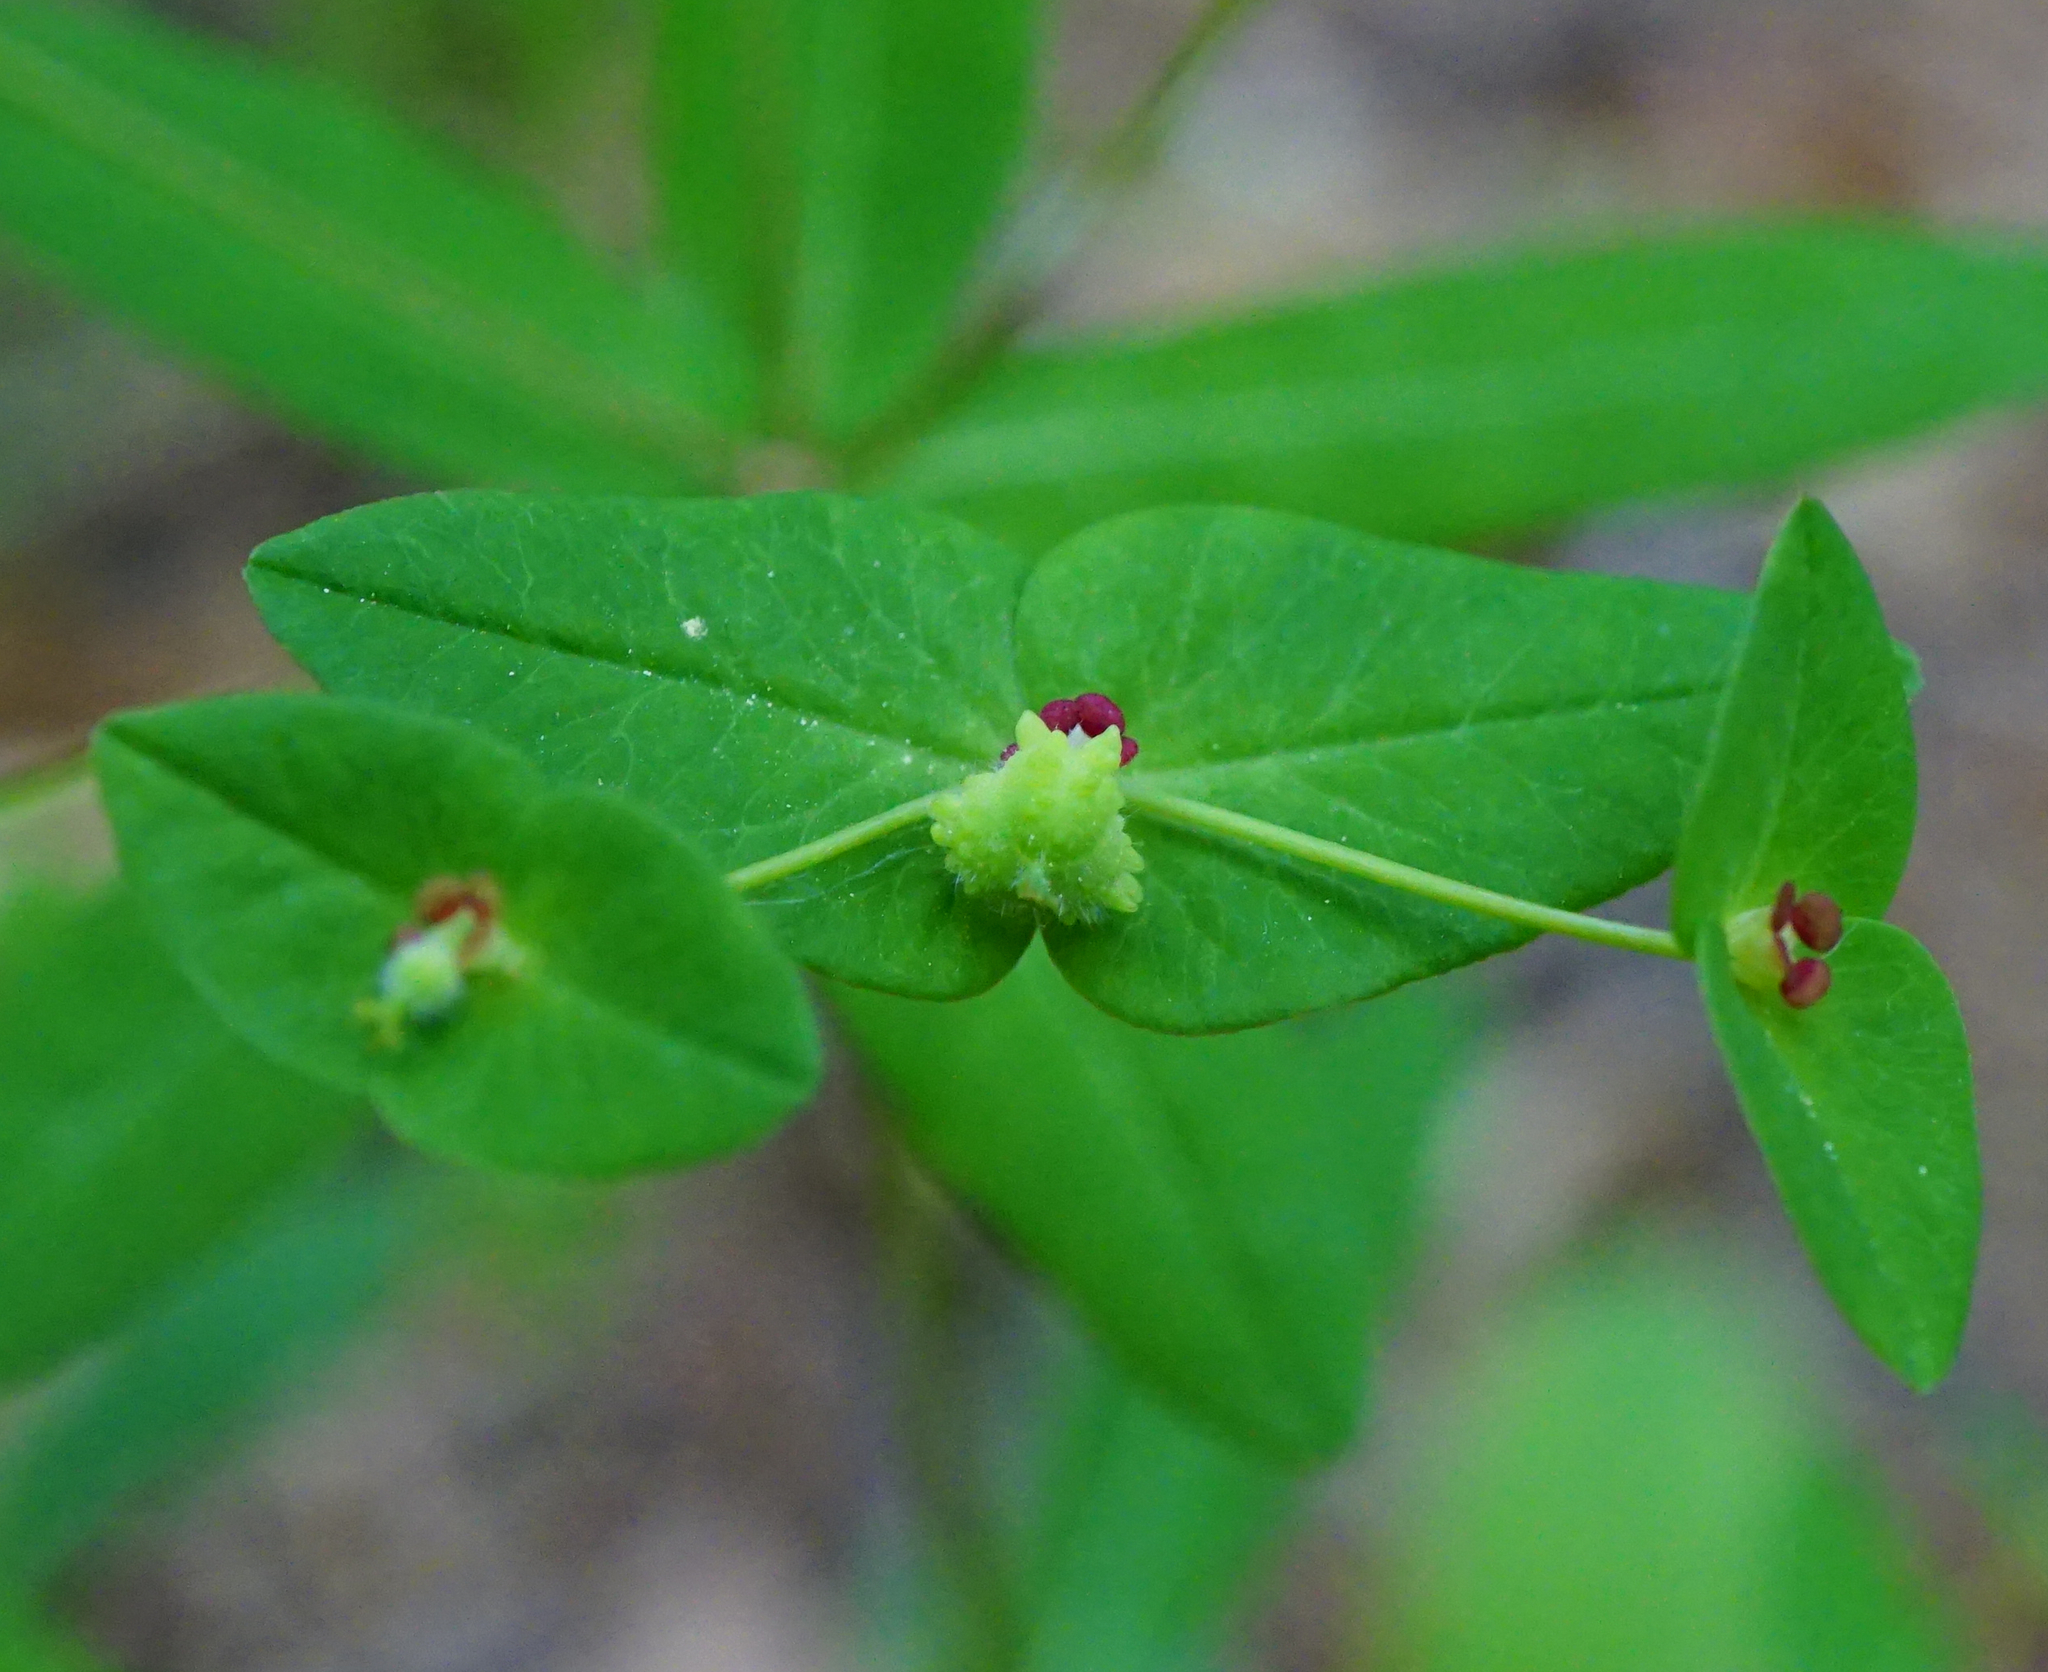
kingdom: Plantae
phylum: Tracheophyta
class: Magnoliopsida
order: Malpighiales
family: Euphorbiaceae
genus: Euphorbia
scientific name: Euphorbia dulcis
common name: Sweet spurge
